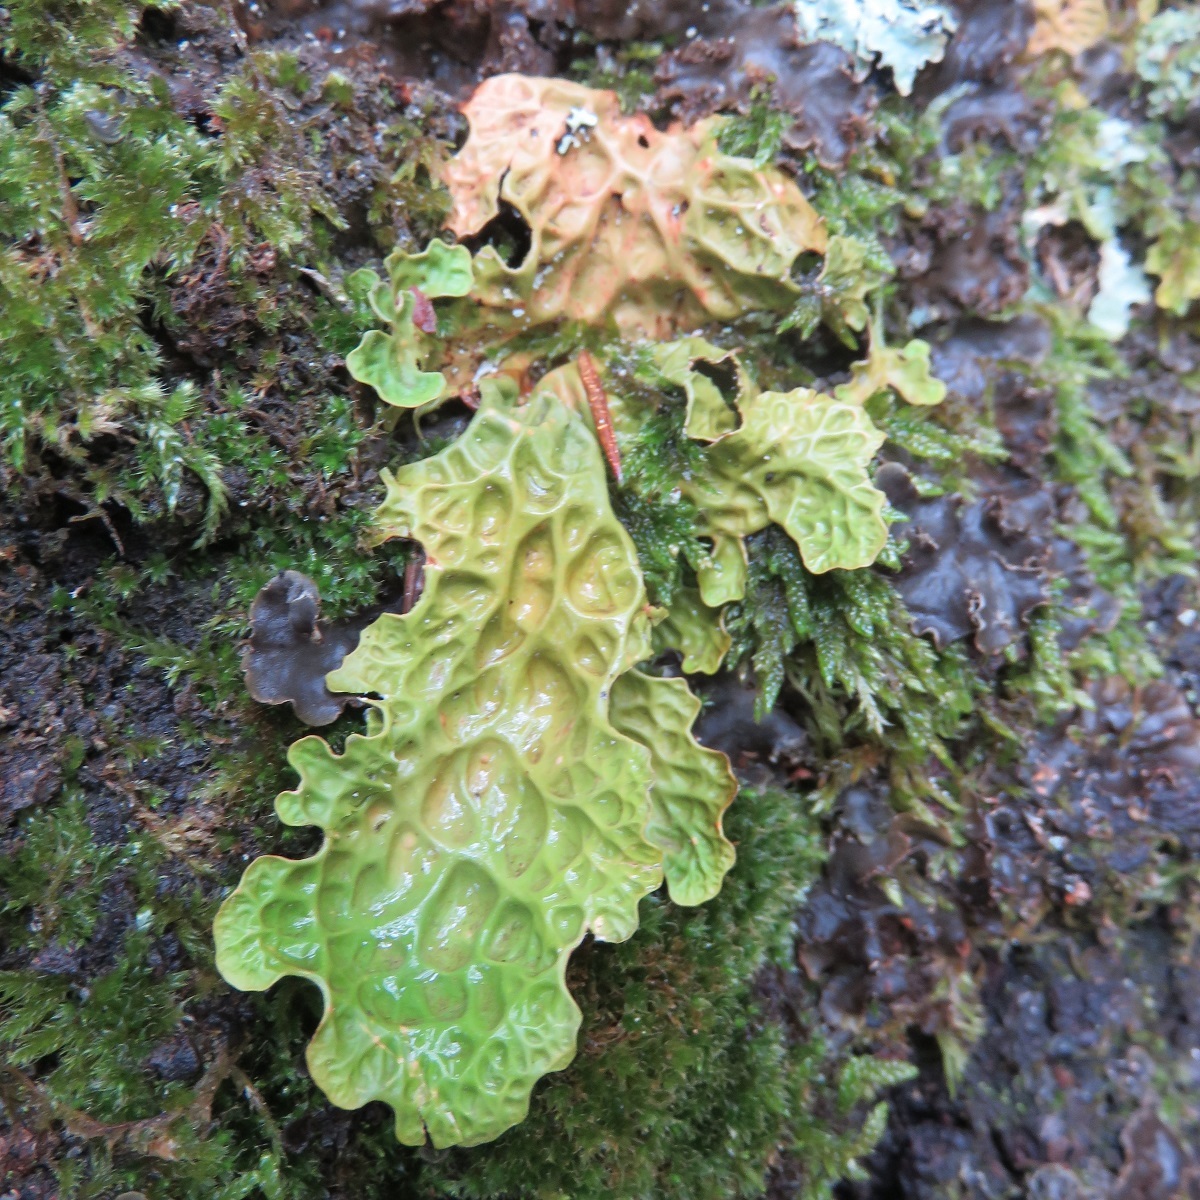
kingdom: Fungi
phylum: Ascomycota
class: Lecanoromycetes
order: Peltigerales
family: Lobariaceae
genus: Lobaria
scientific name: Lobaria pulmonaria
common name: Lungwort
